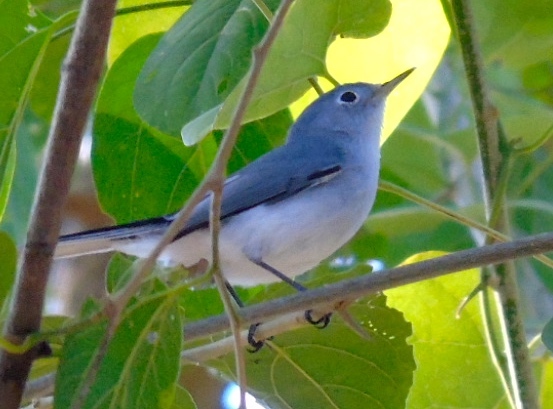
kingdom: Animalia
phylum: Chordata
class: Aves
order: Passeriformes
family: Polioptilidae
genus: Polioptila
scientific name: Polioptila caerulea
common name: Blue-gray gnatcatcher
